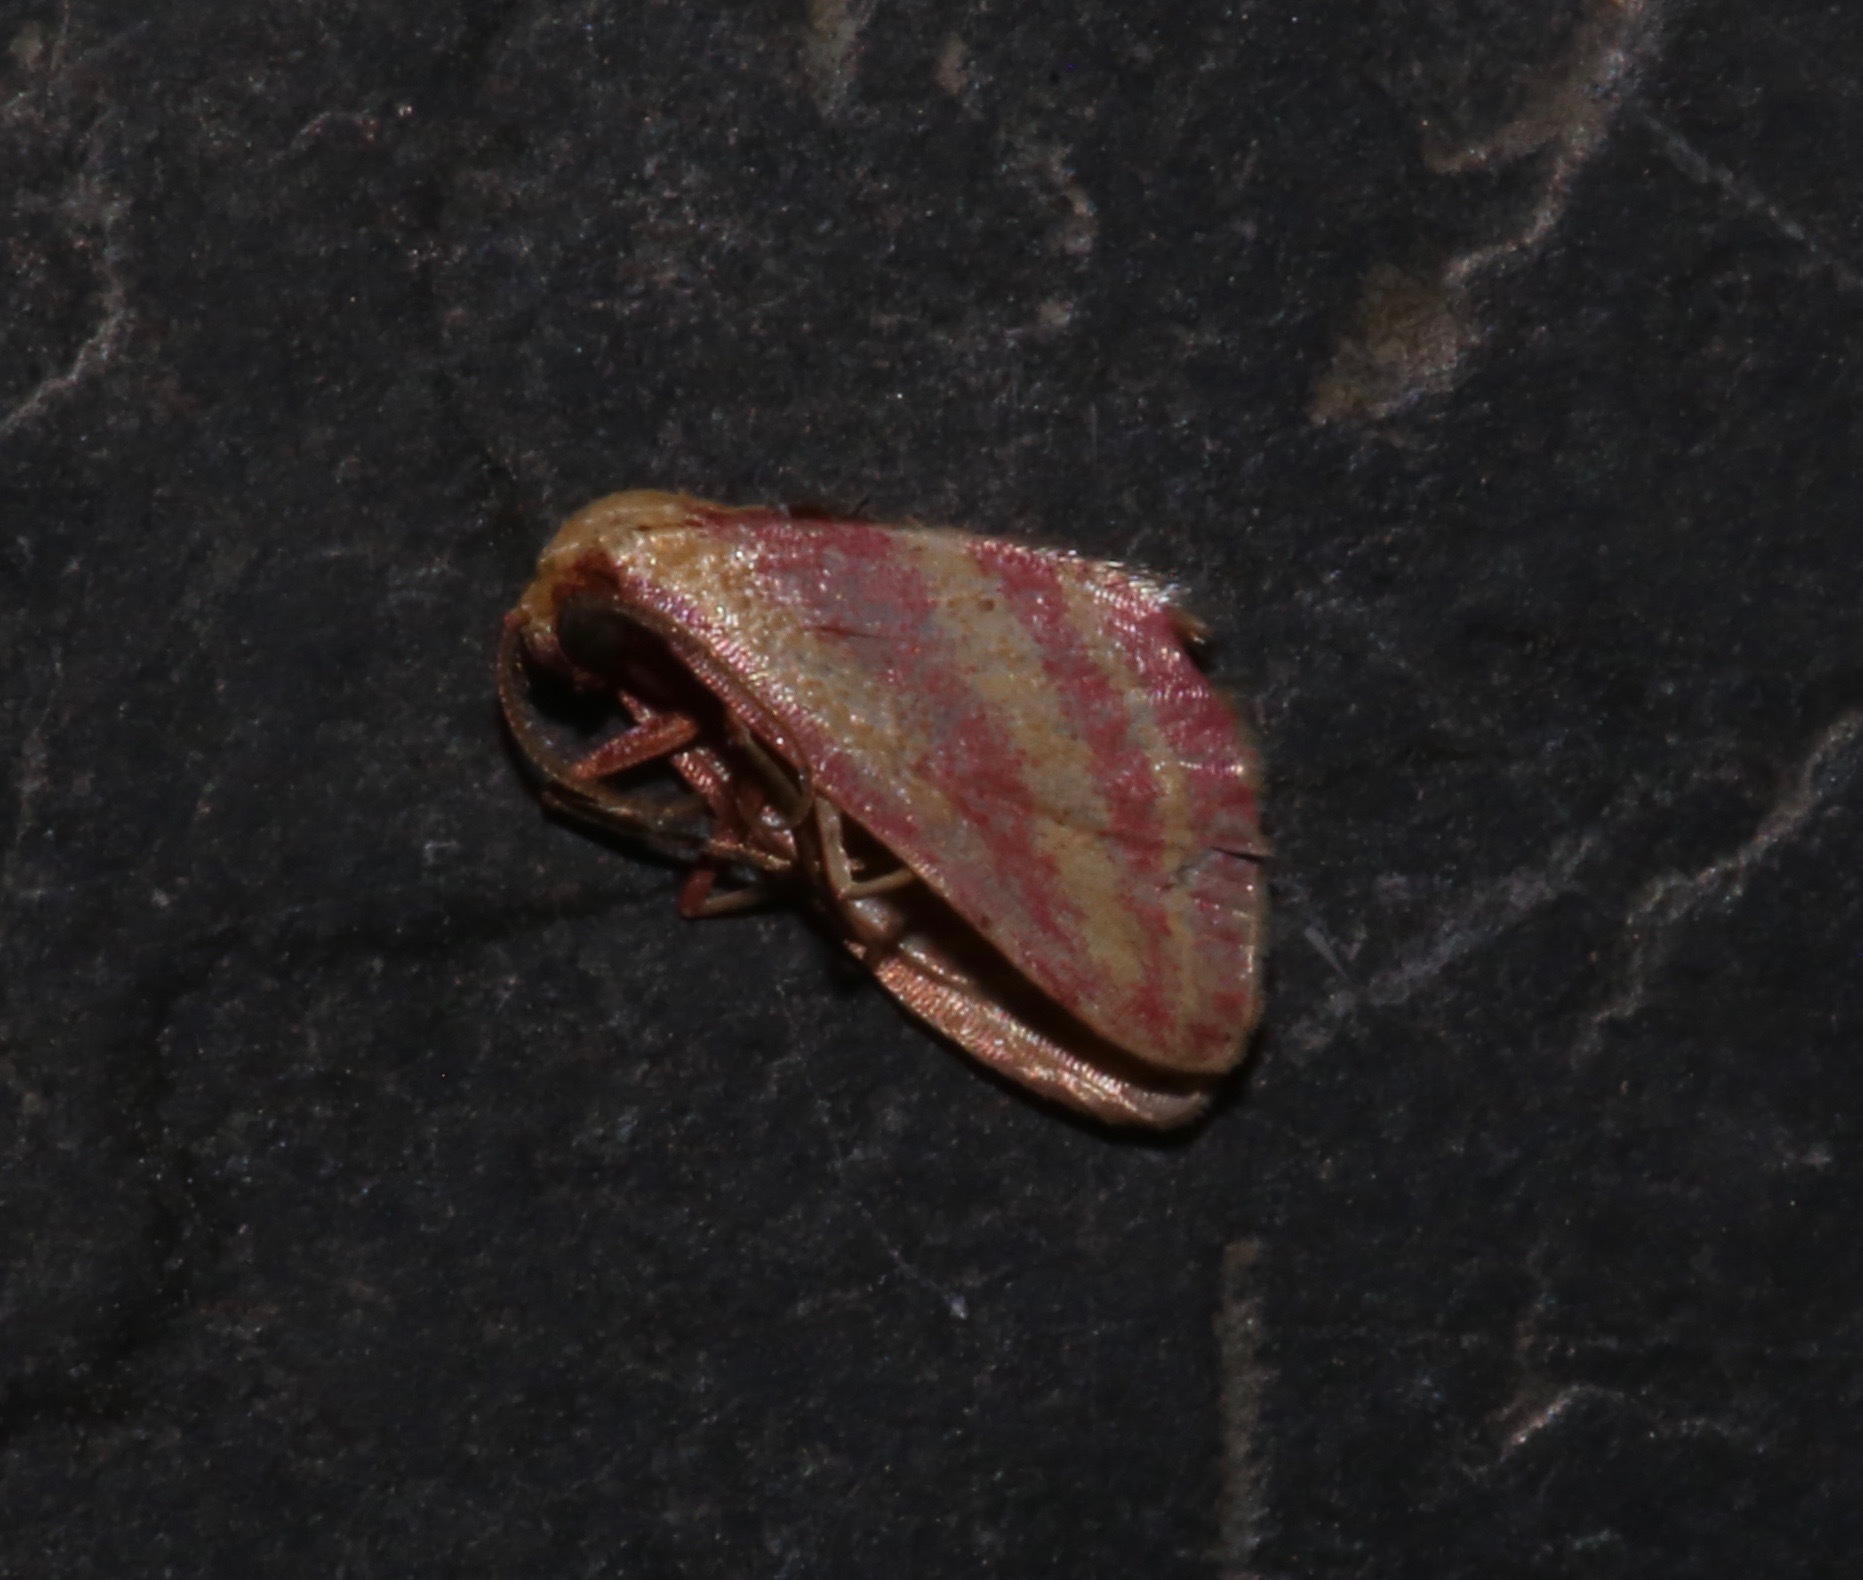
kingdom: Animalia
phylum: Arthropoda
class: Insecta
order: Lepidoptera
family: Geometridae
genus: Leptostales
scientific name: Leptostales laevitaria
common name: Raspberry wave moth
